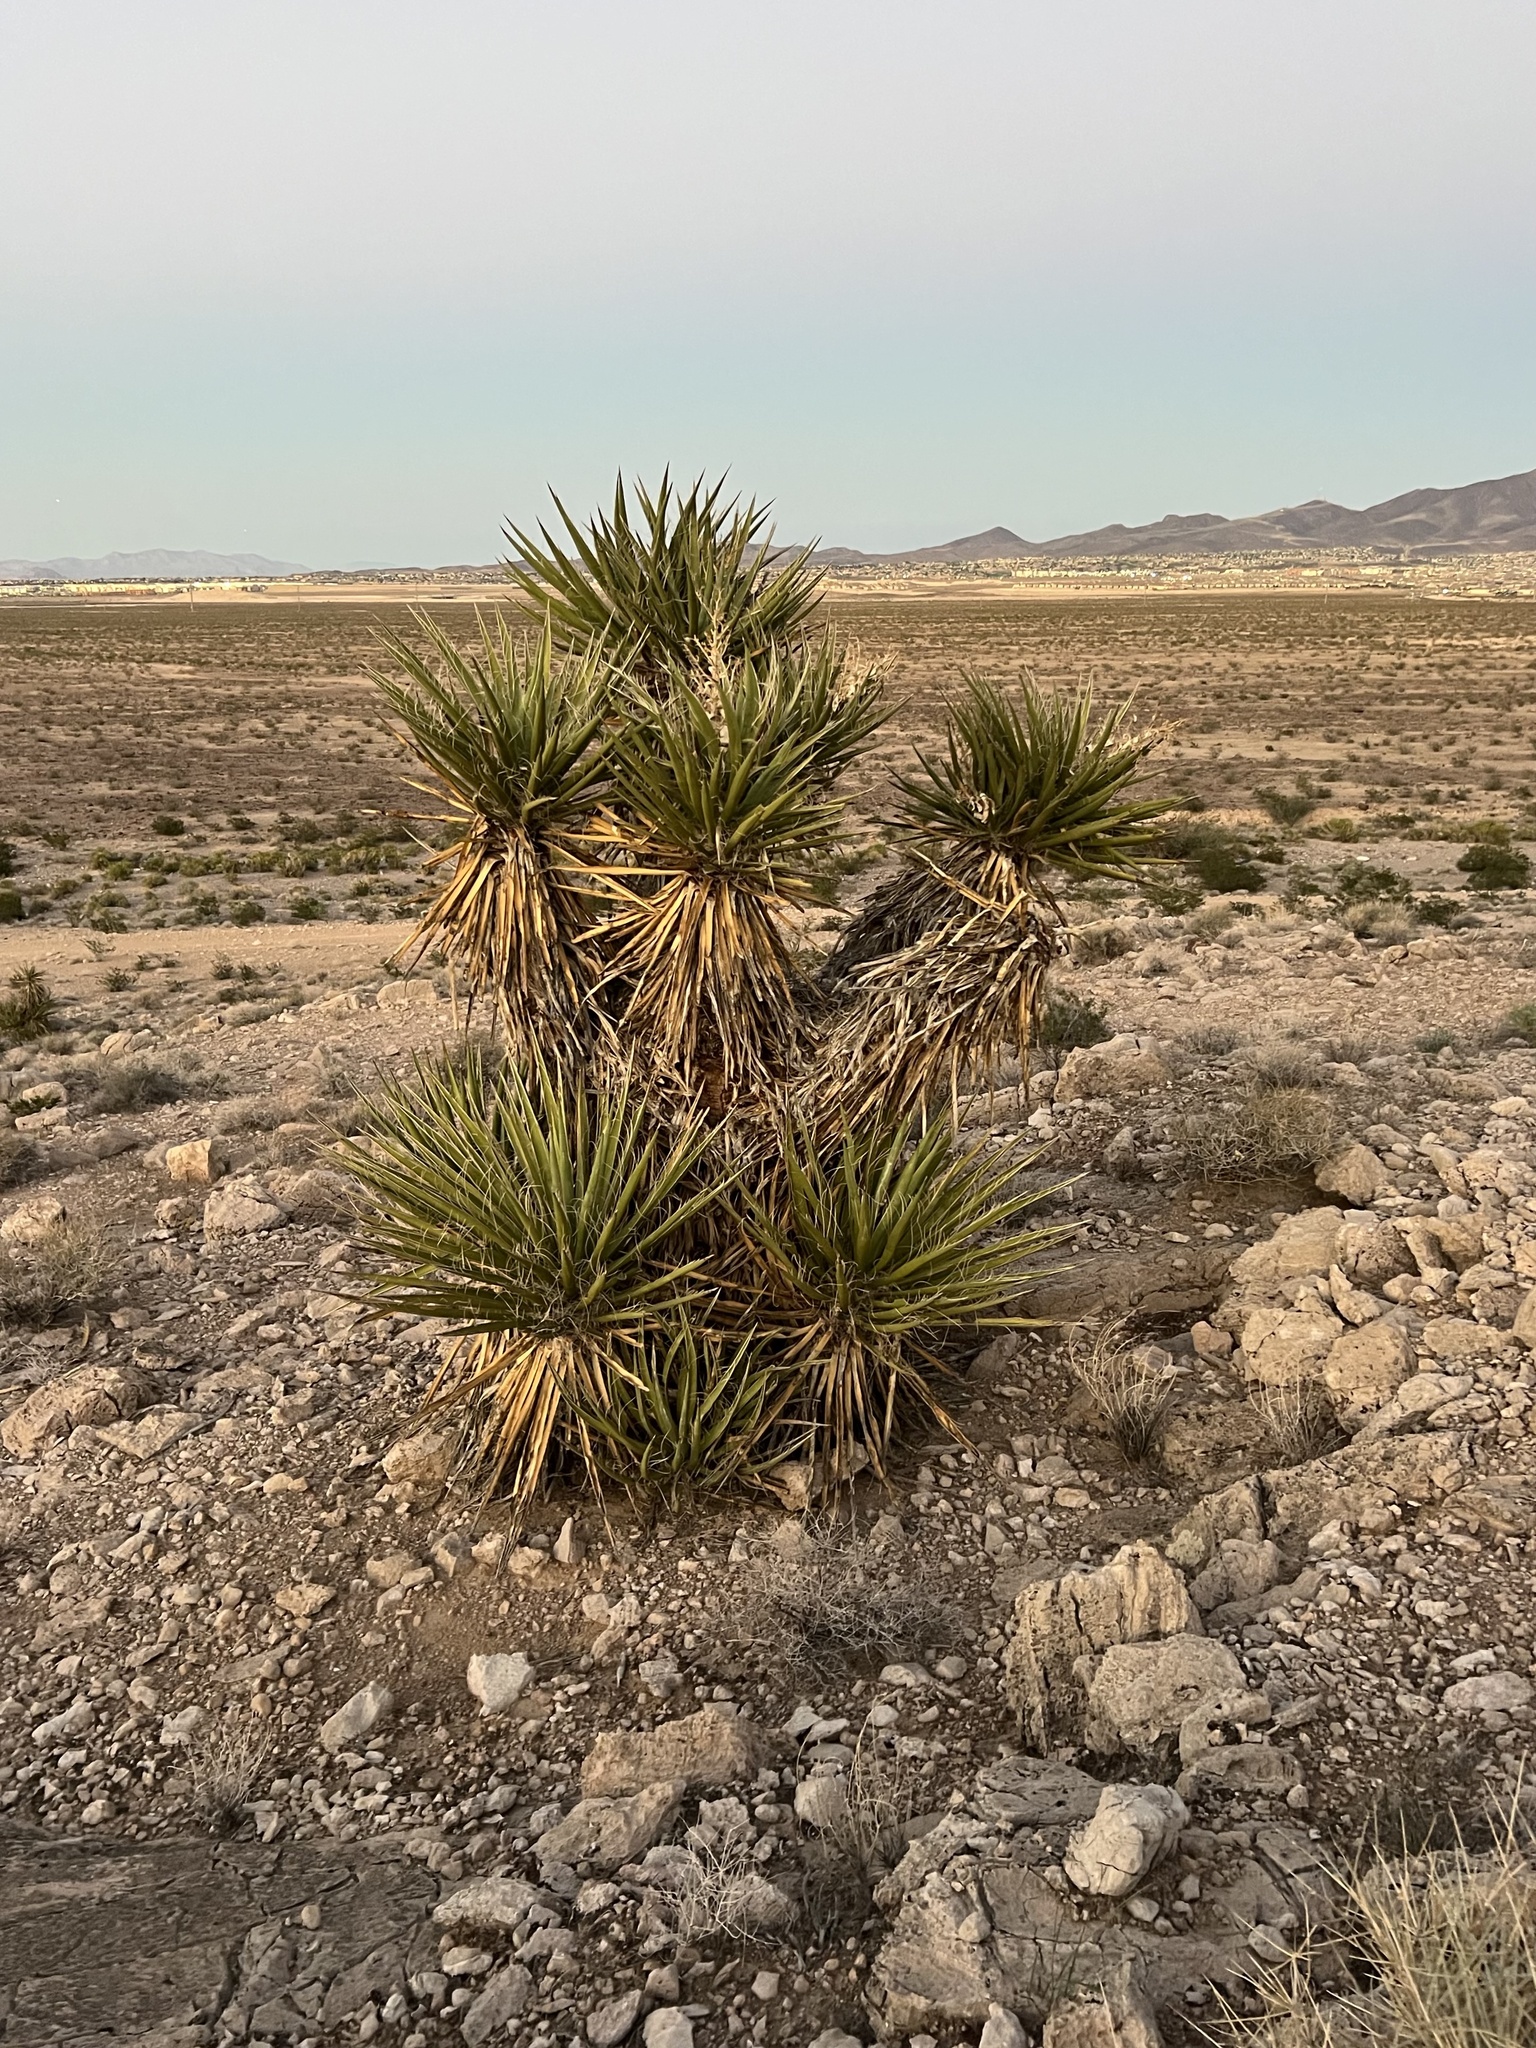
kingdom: Plantae
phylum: Tracheophyta
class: Liliopsida
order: Asparagales
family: Asparagaceae
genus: Yucca
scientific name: Yucca schidigera
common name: Mojave yucca
